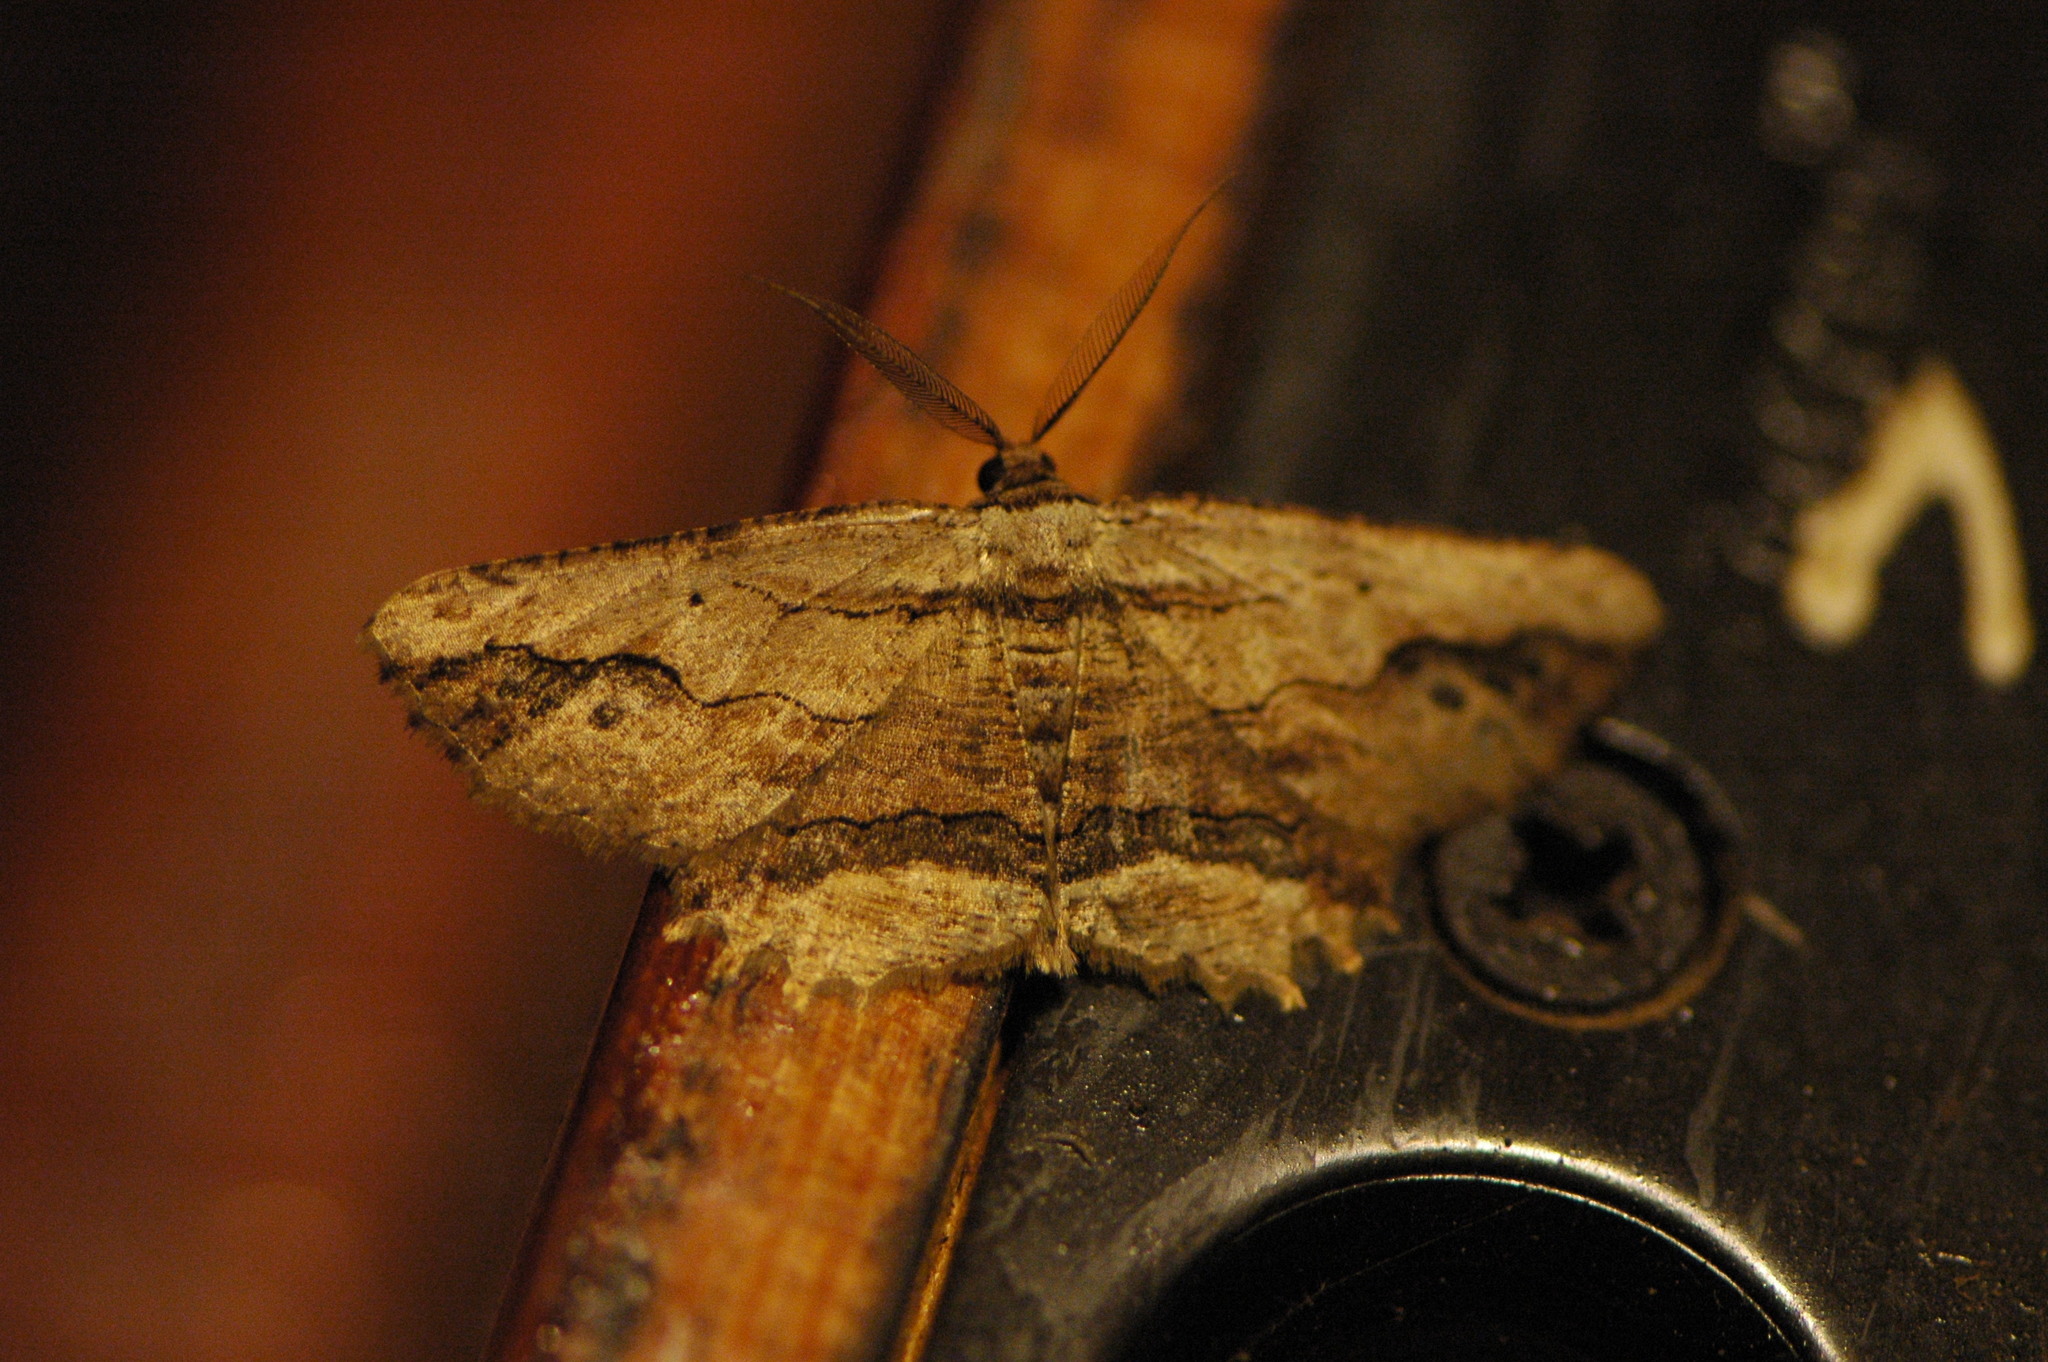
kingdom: Animalia
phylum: Arthropoda
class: Insecta
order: Lepidoptera
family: Geometridae
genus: Menophra
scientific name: Menophra abruptaria
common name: Waved umber
